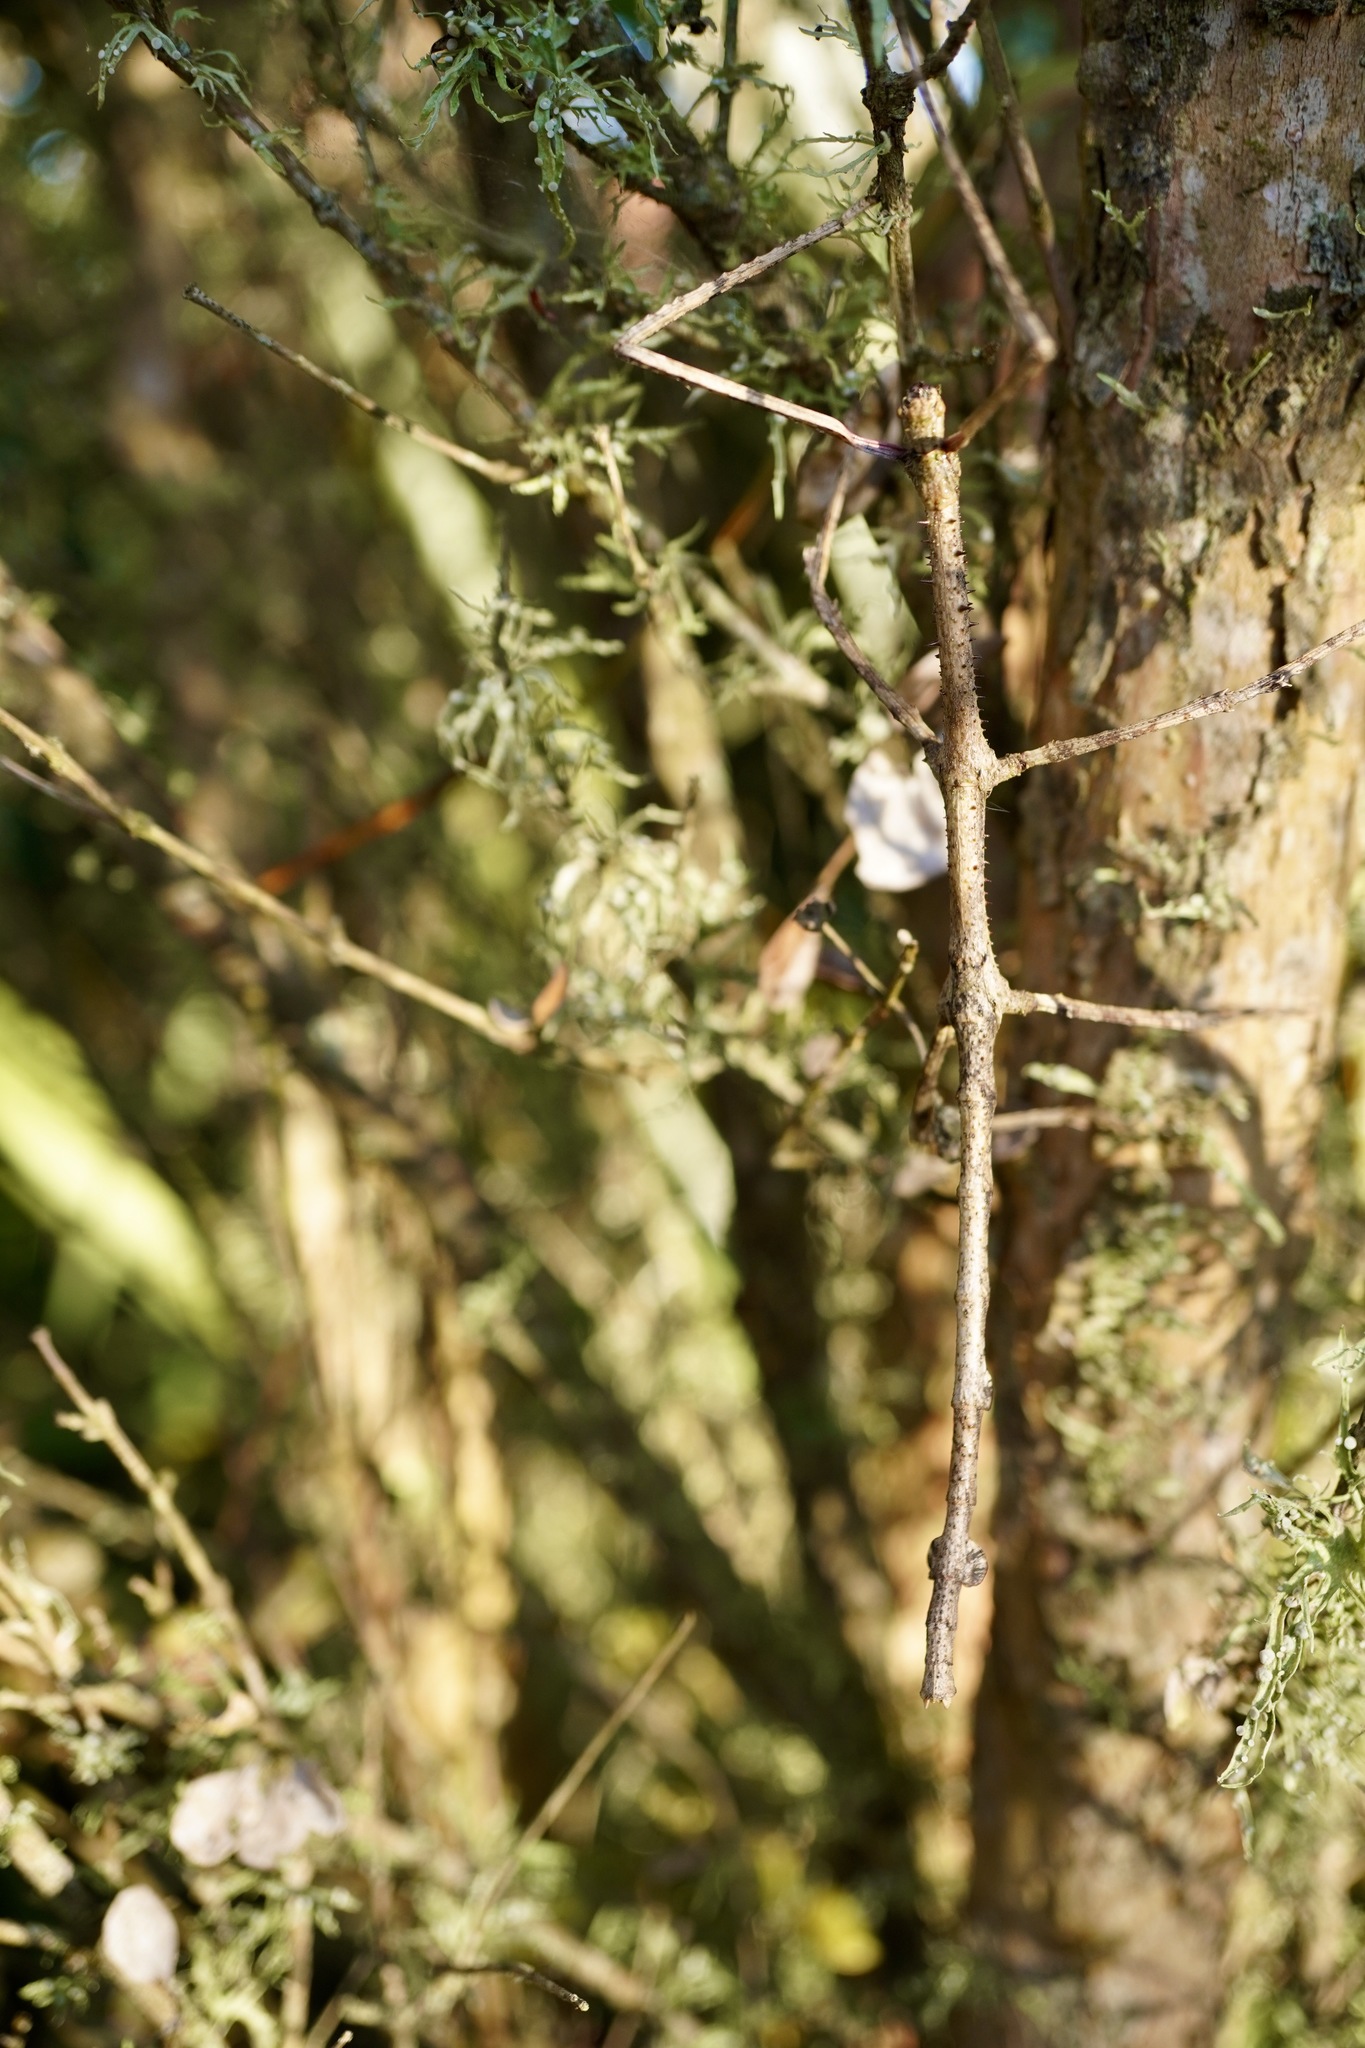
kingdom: Animalia
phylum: Arthropoda
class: Insecta
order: Phasmida
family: Phasmatidae
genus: Argosarchus
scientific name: Argosarchus horridus
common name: Bristly stick insect
